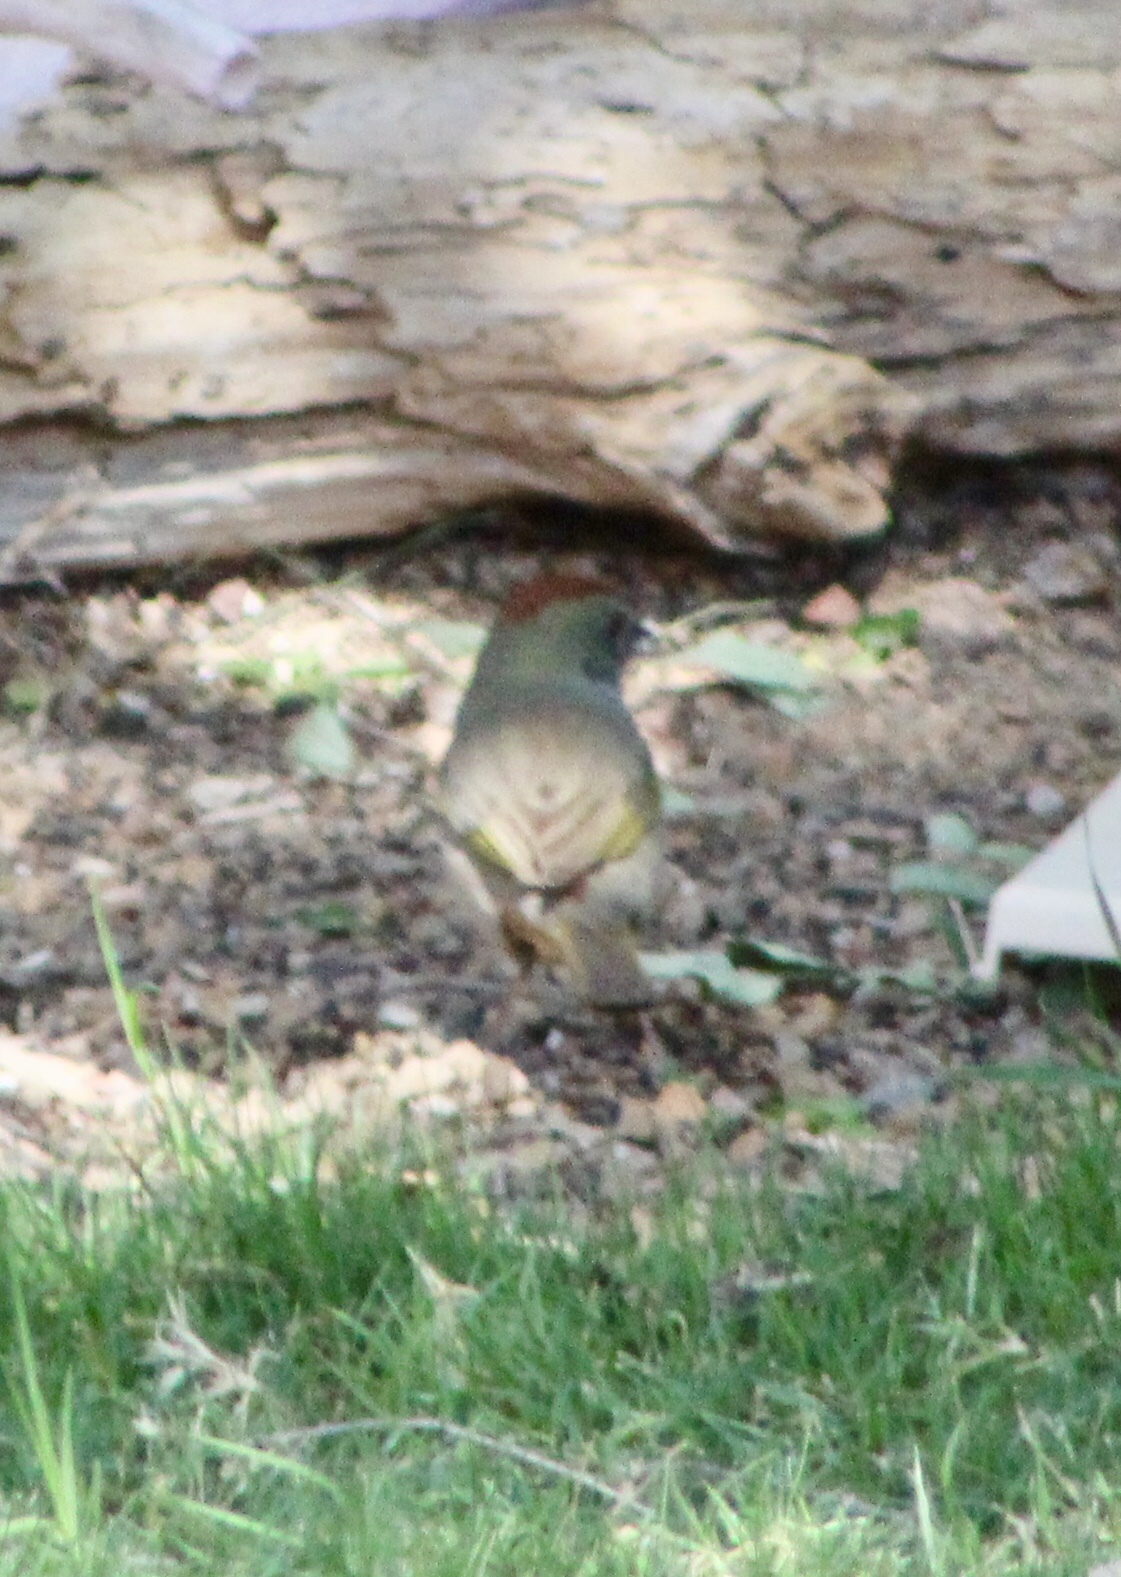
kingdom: Animalia
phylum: Chordata
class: Aves
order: Passeriformes
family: Passerellidae
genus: Pipilo
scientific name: Pipilo chlorurus
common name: Green-tailed towhee
